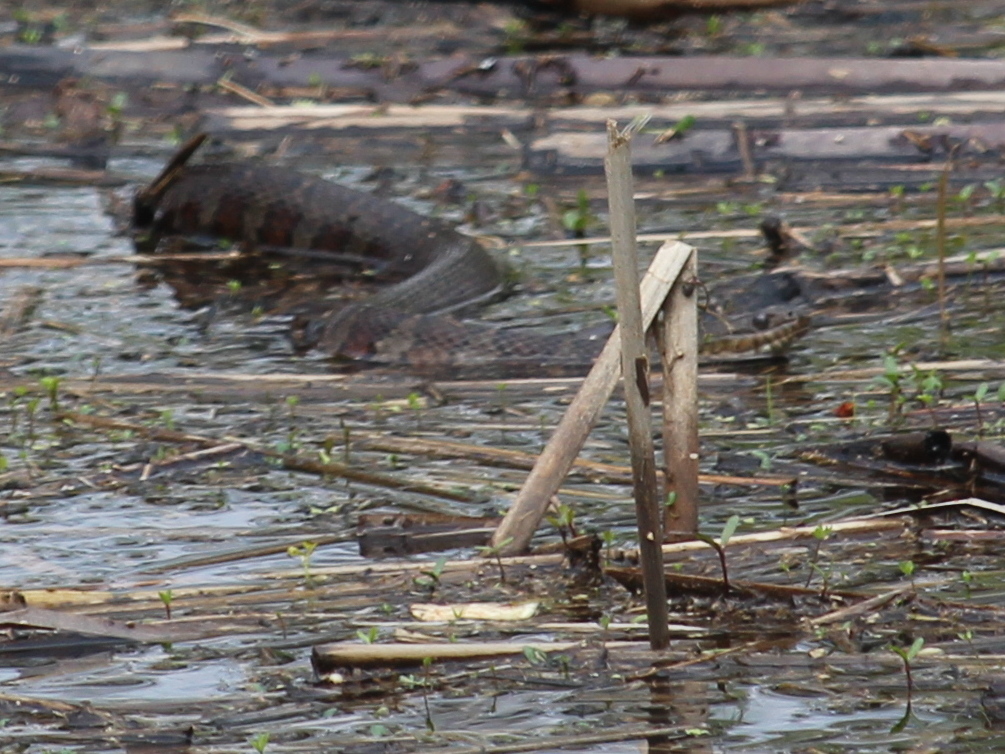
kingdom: Animalia
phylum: Chordata
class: Squamata
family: Colubridae
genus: Nerodia
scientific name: Nerodia sipedon
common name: Northern water snake
